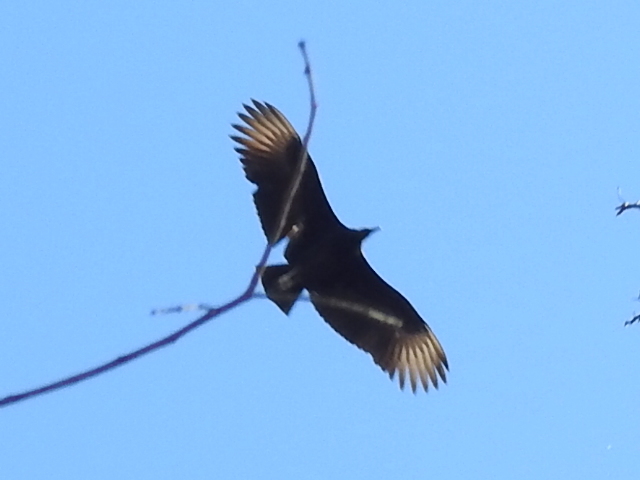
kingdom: Animalia
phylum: Chordata
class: Aves
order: Accipitriformes
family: Cathartidae
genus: Coragyps
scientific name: Coragyps atratus
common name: Black vulture
